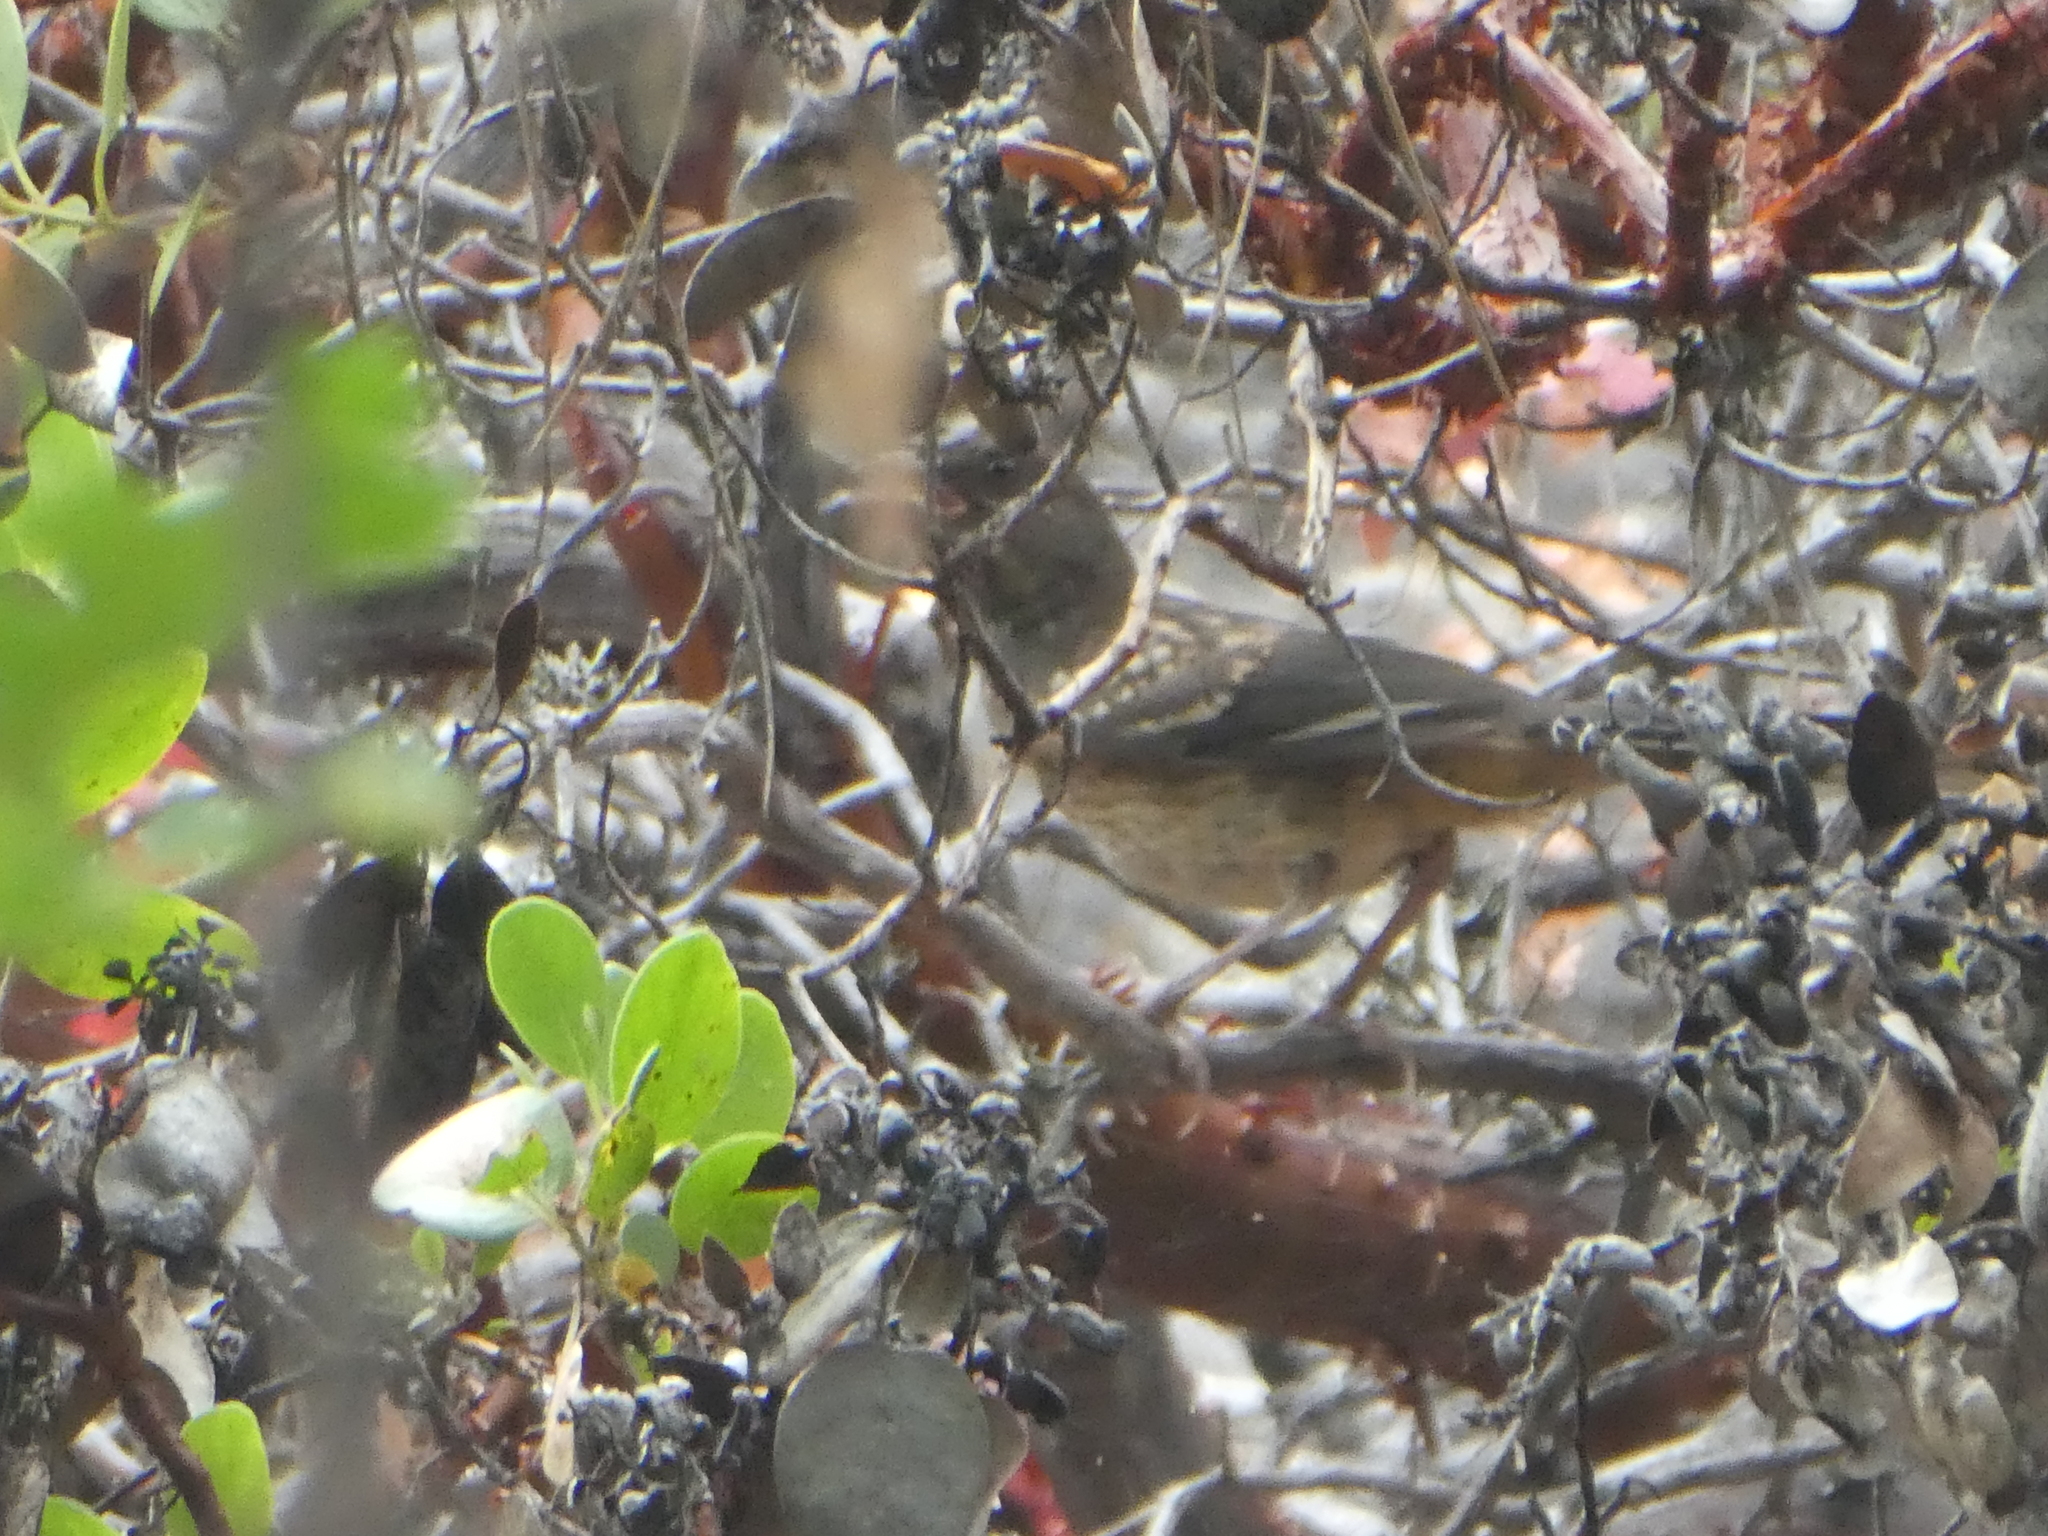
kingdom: Animalia
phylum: Chordata
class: Aves
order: Passeriformes
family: Passerellidae
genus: Pipilo
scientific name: Pipilo maculatus
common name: Spotted towhee
